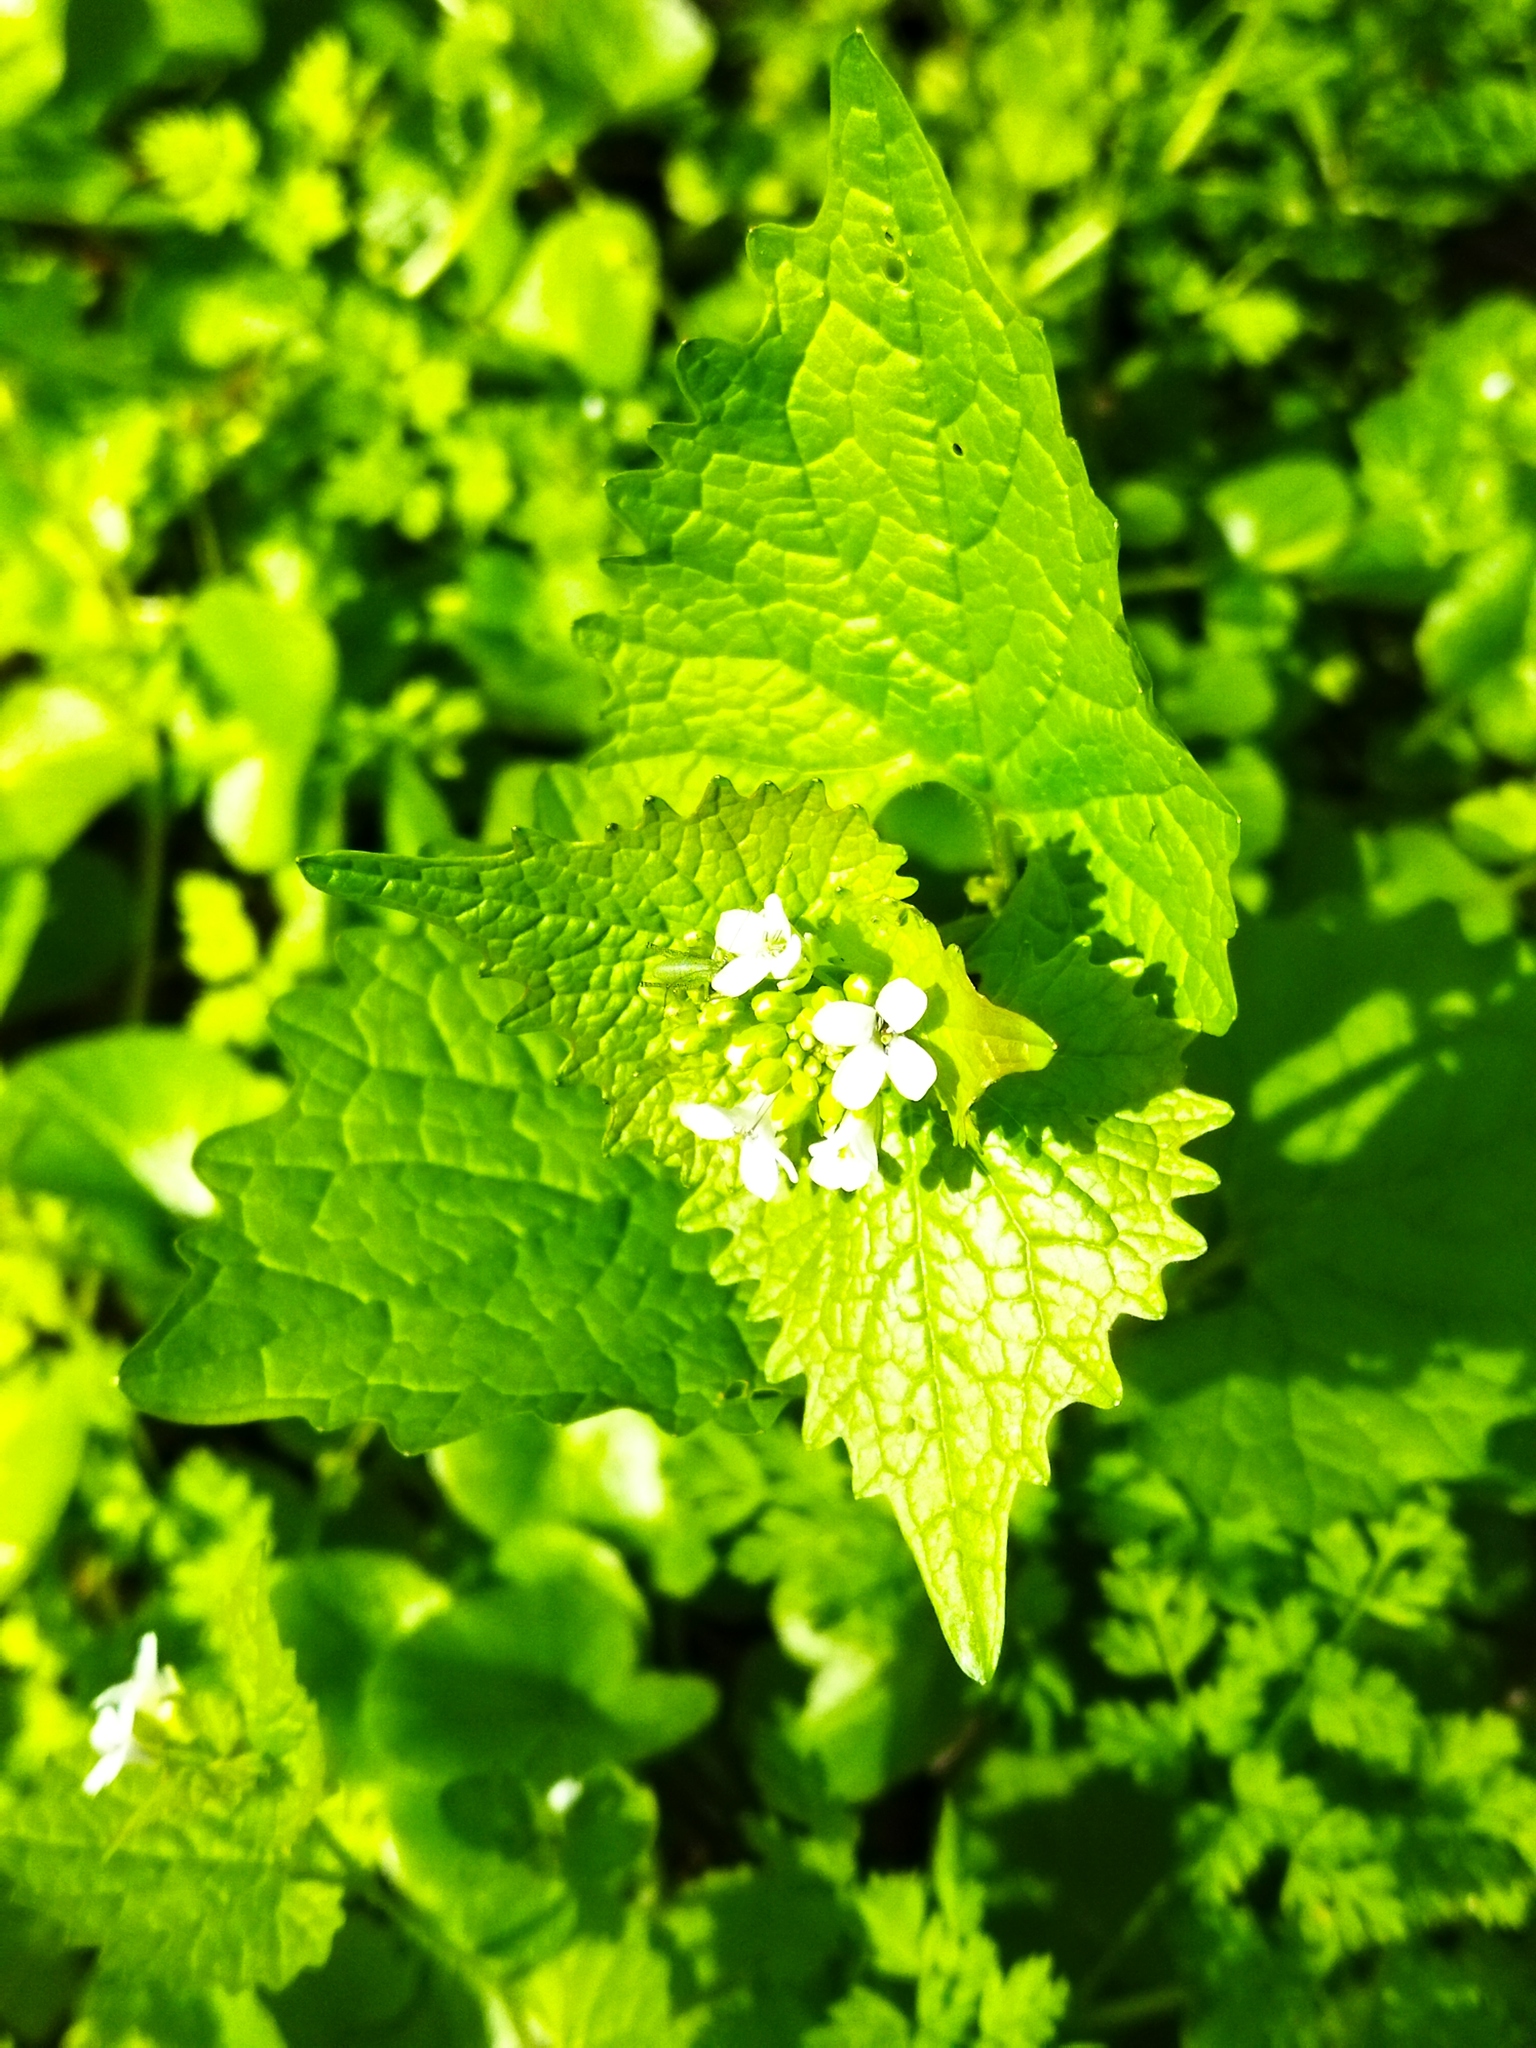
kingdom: Plantae
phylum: Tracheophyta
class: Magnoliopsida
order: Brassicales
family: Brassicaceae
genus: Alliaria
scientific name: Alliaria petiolata
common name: Garlic mustard
